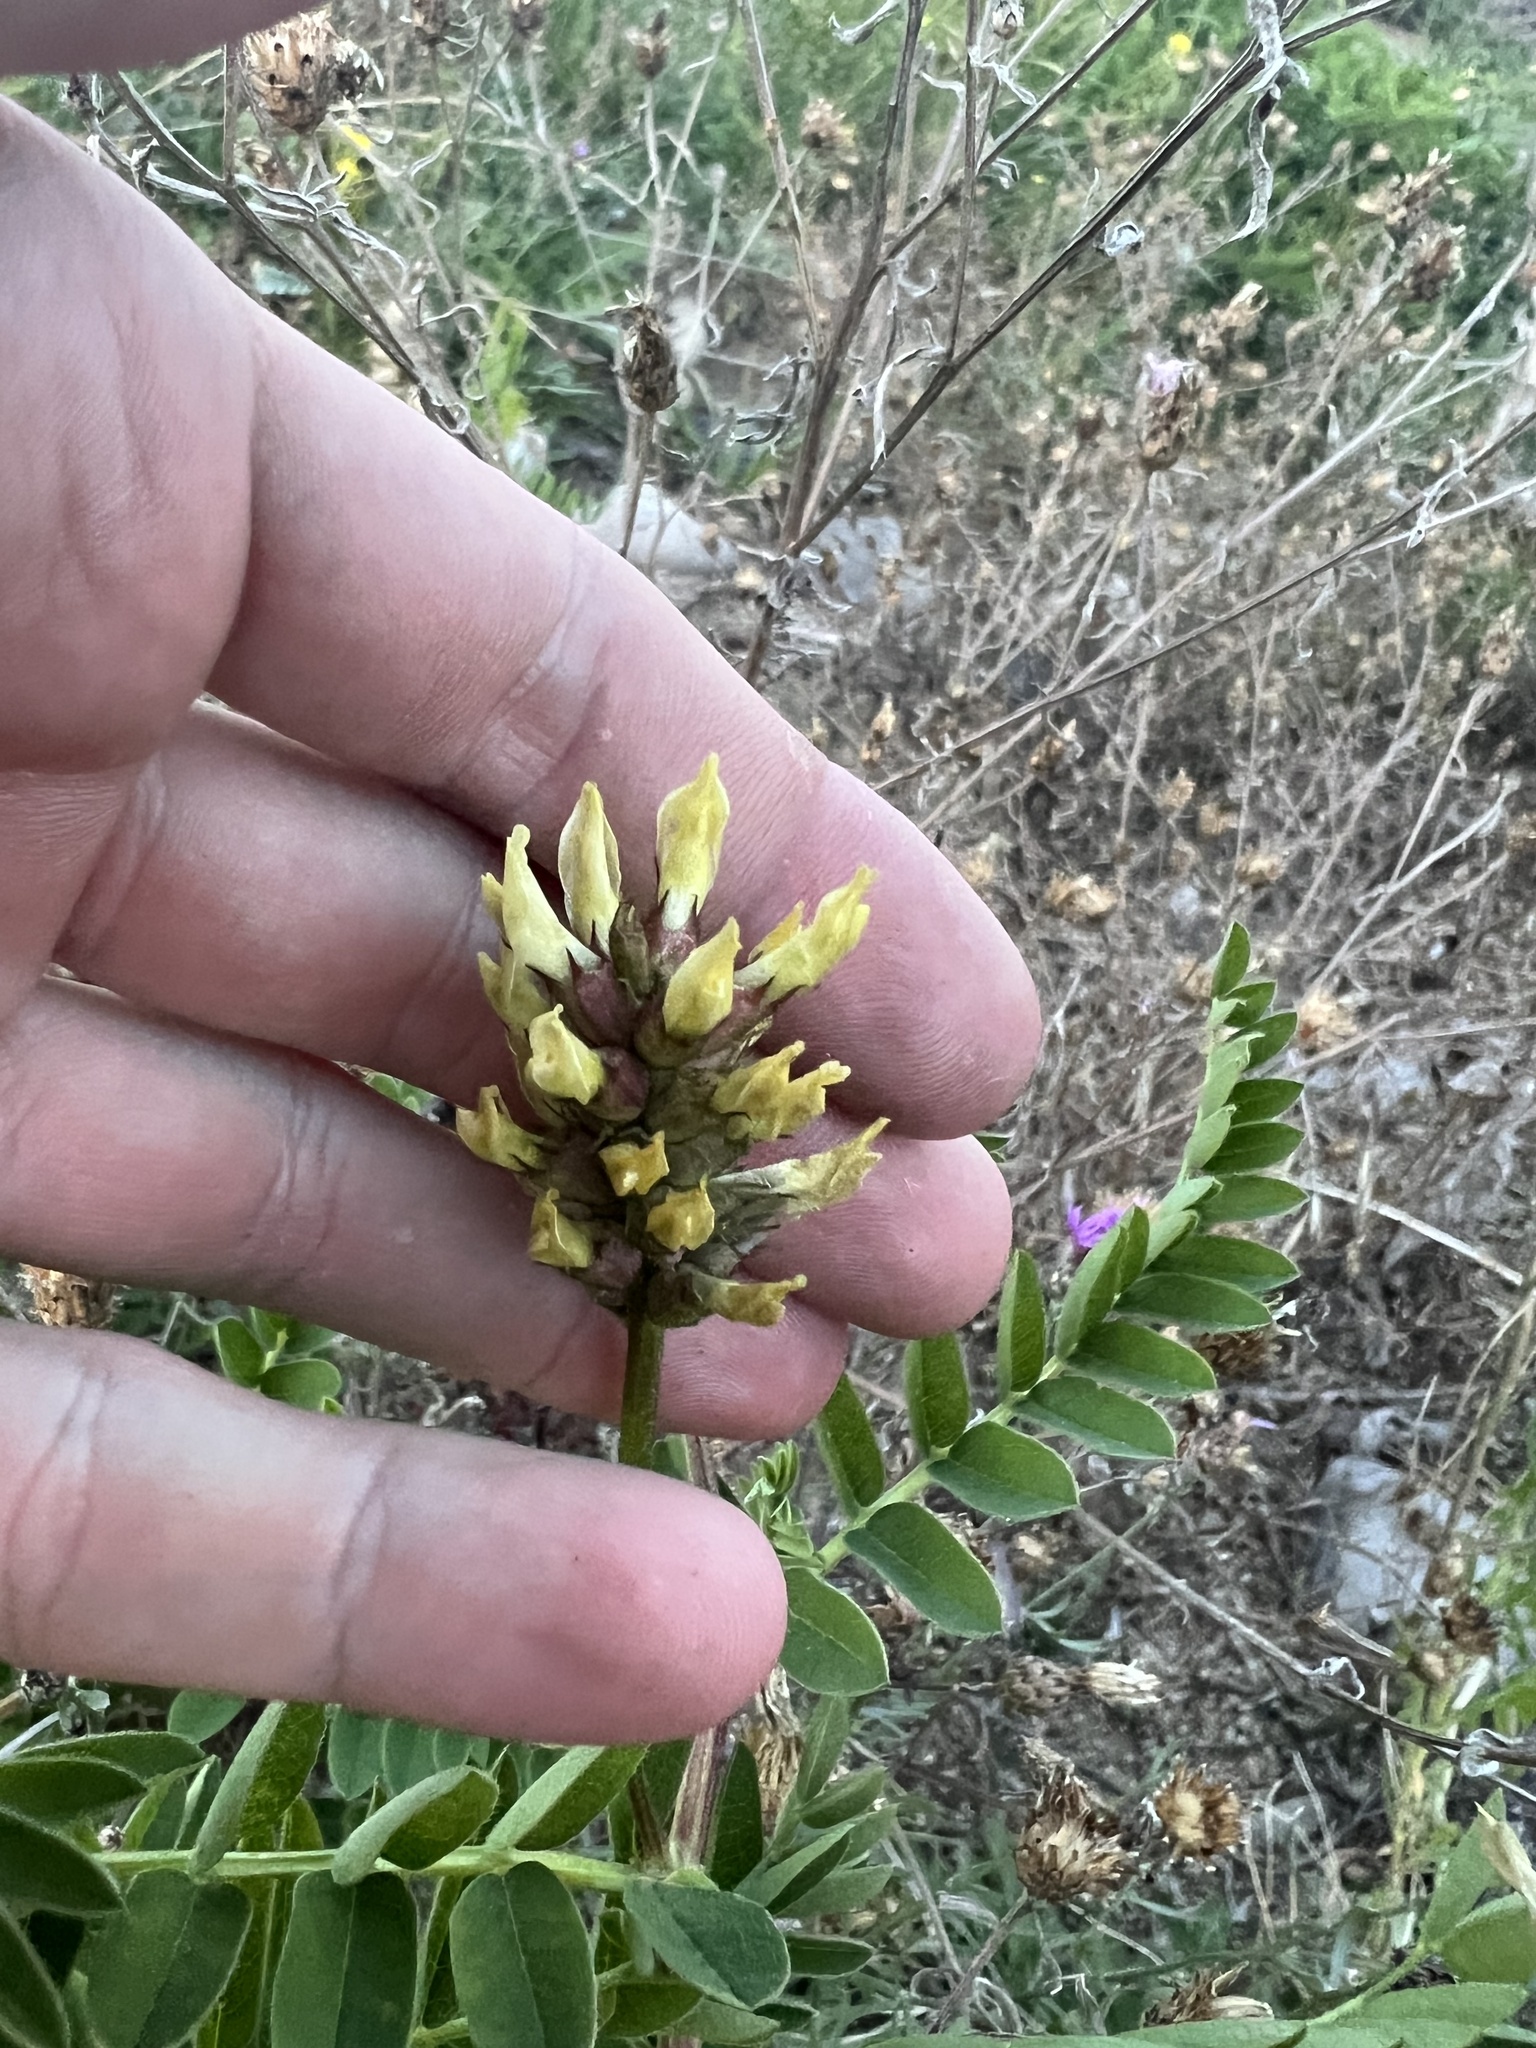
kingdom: Plantae
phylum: Tracheophyta
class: Magnoliopsida
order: Fabales
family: Fabaceae
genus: Astragalus
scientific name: Astragalus cicer
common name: Chick-pea milk-vetch
